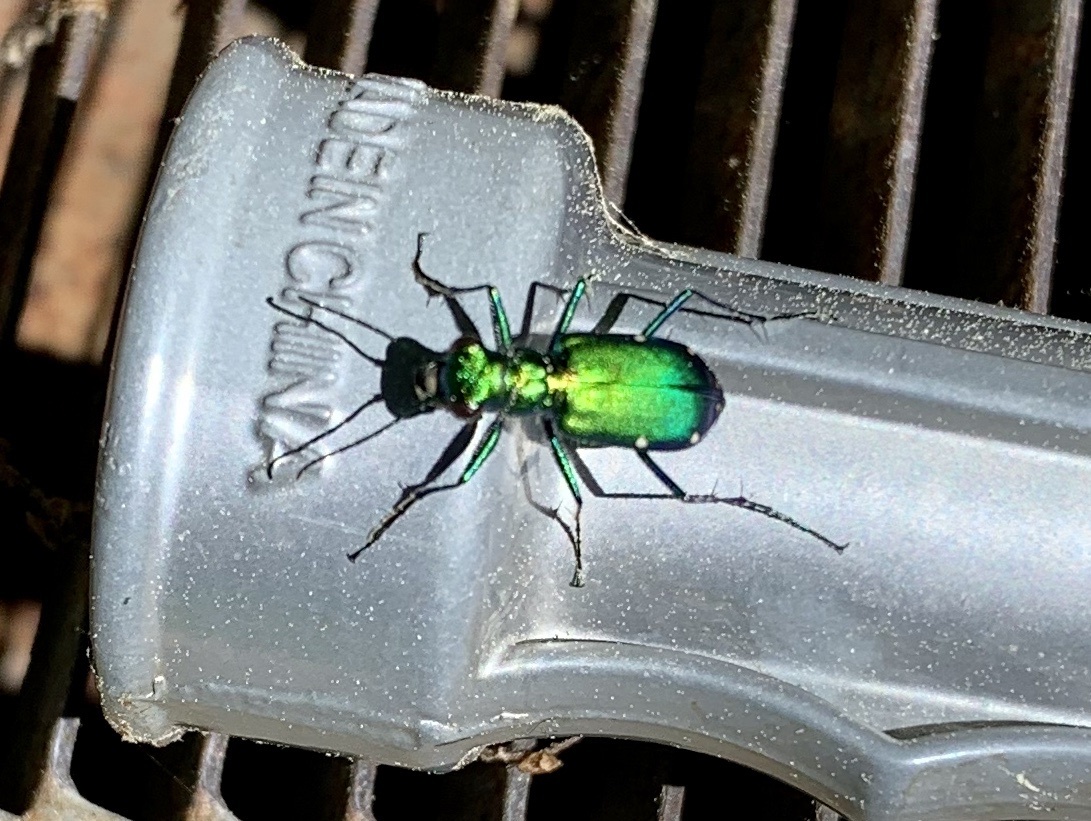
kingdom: Animalia
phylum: Arthropoda
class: Insecta
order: Coleoptera
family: Carabidae
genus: Cicindela
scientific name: Cicindela sexguttata
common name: Six-spotted tiger beetle
